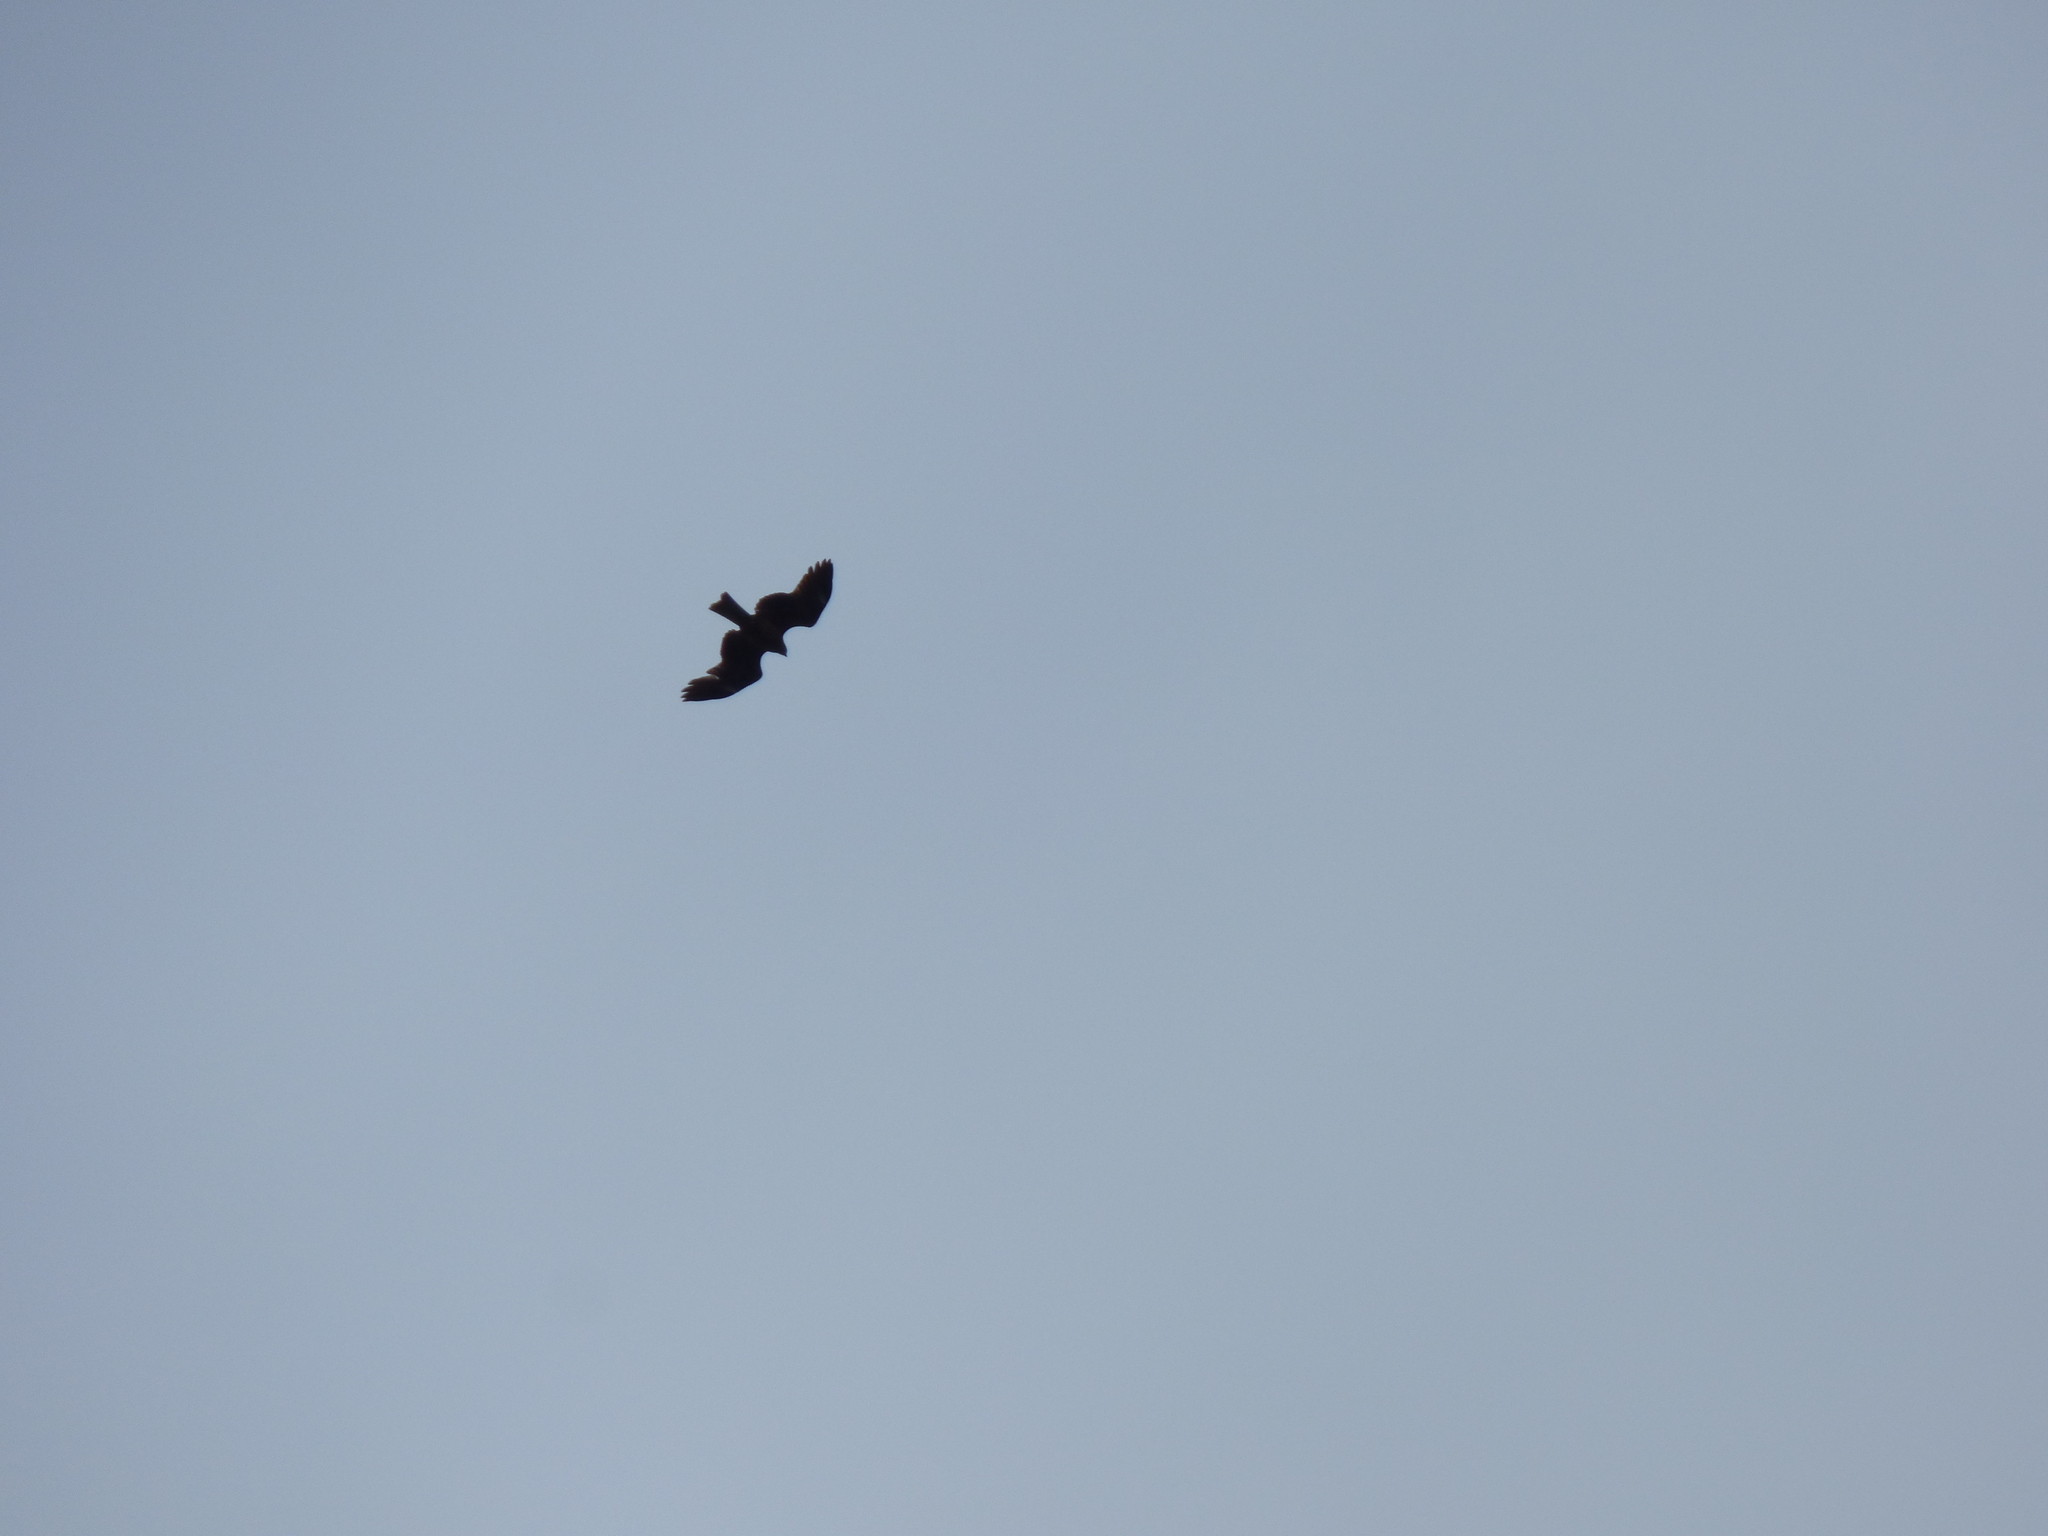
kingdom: Animalia
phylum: Chordata
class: Aves
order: Accipitriformes
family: Accipitridae
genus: Milvus
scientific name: Milvus migrans
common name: Black kite
